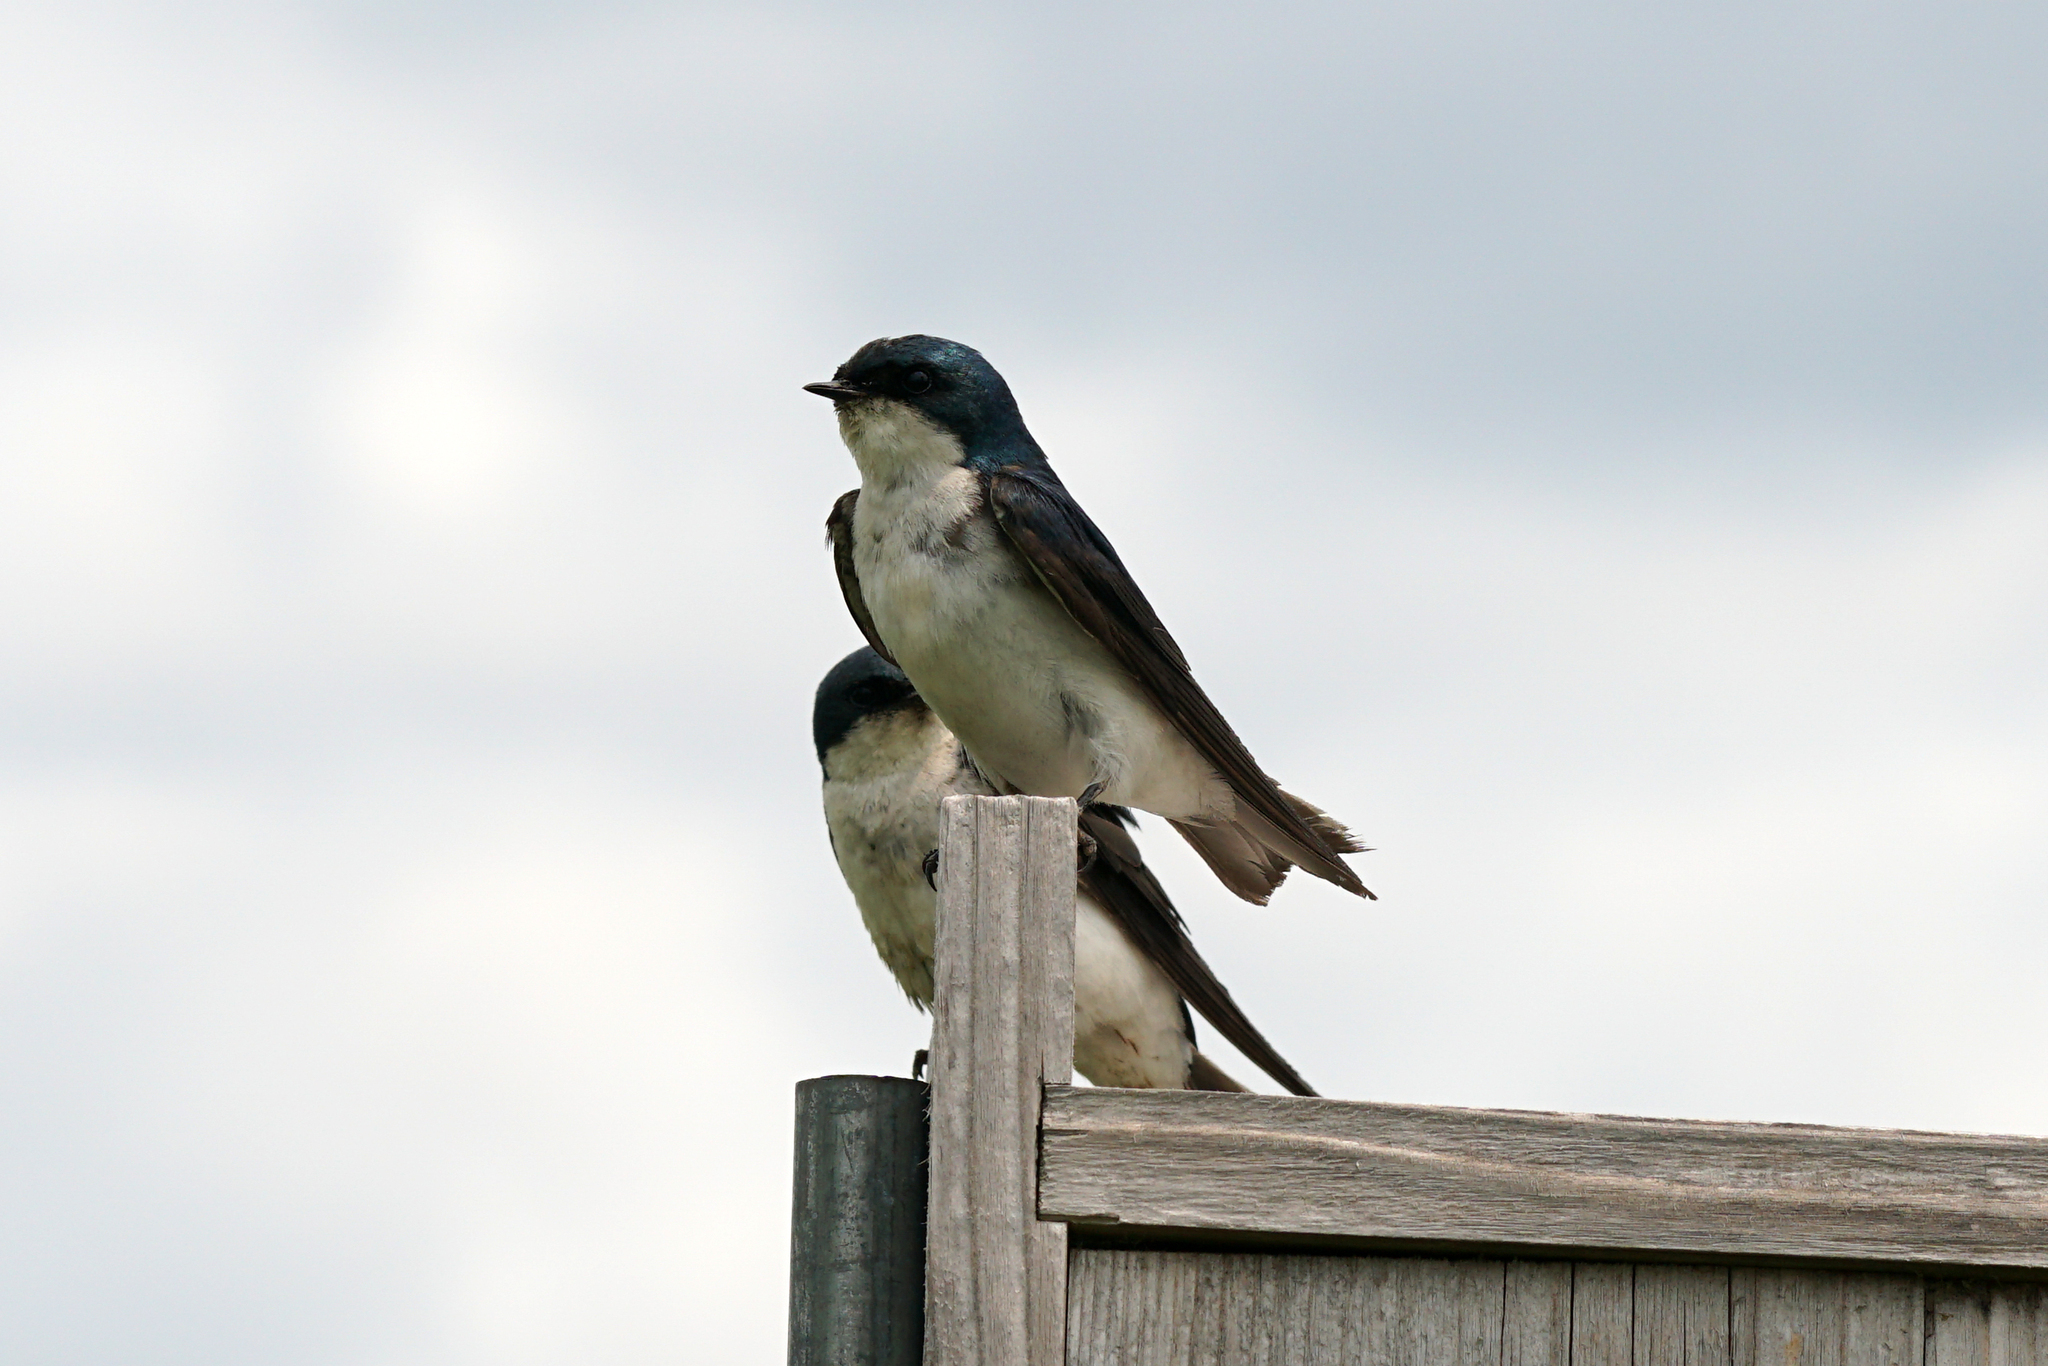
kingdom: Animalia
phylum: Chordata
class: Aves
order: Passeriformes
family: Hirundinidae
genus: Tachycineta
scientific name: Tachycineta bicolor
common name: Tree swallow
